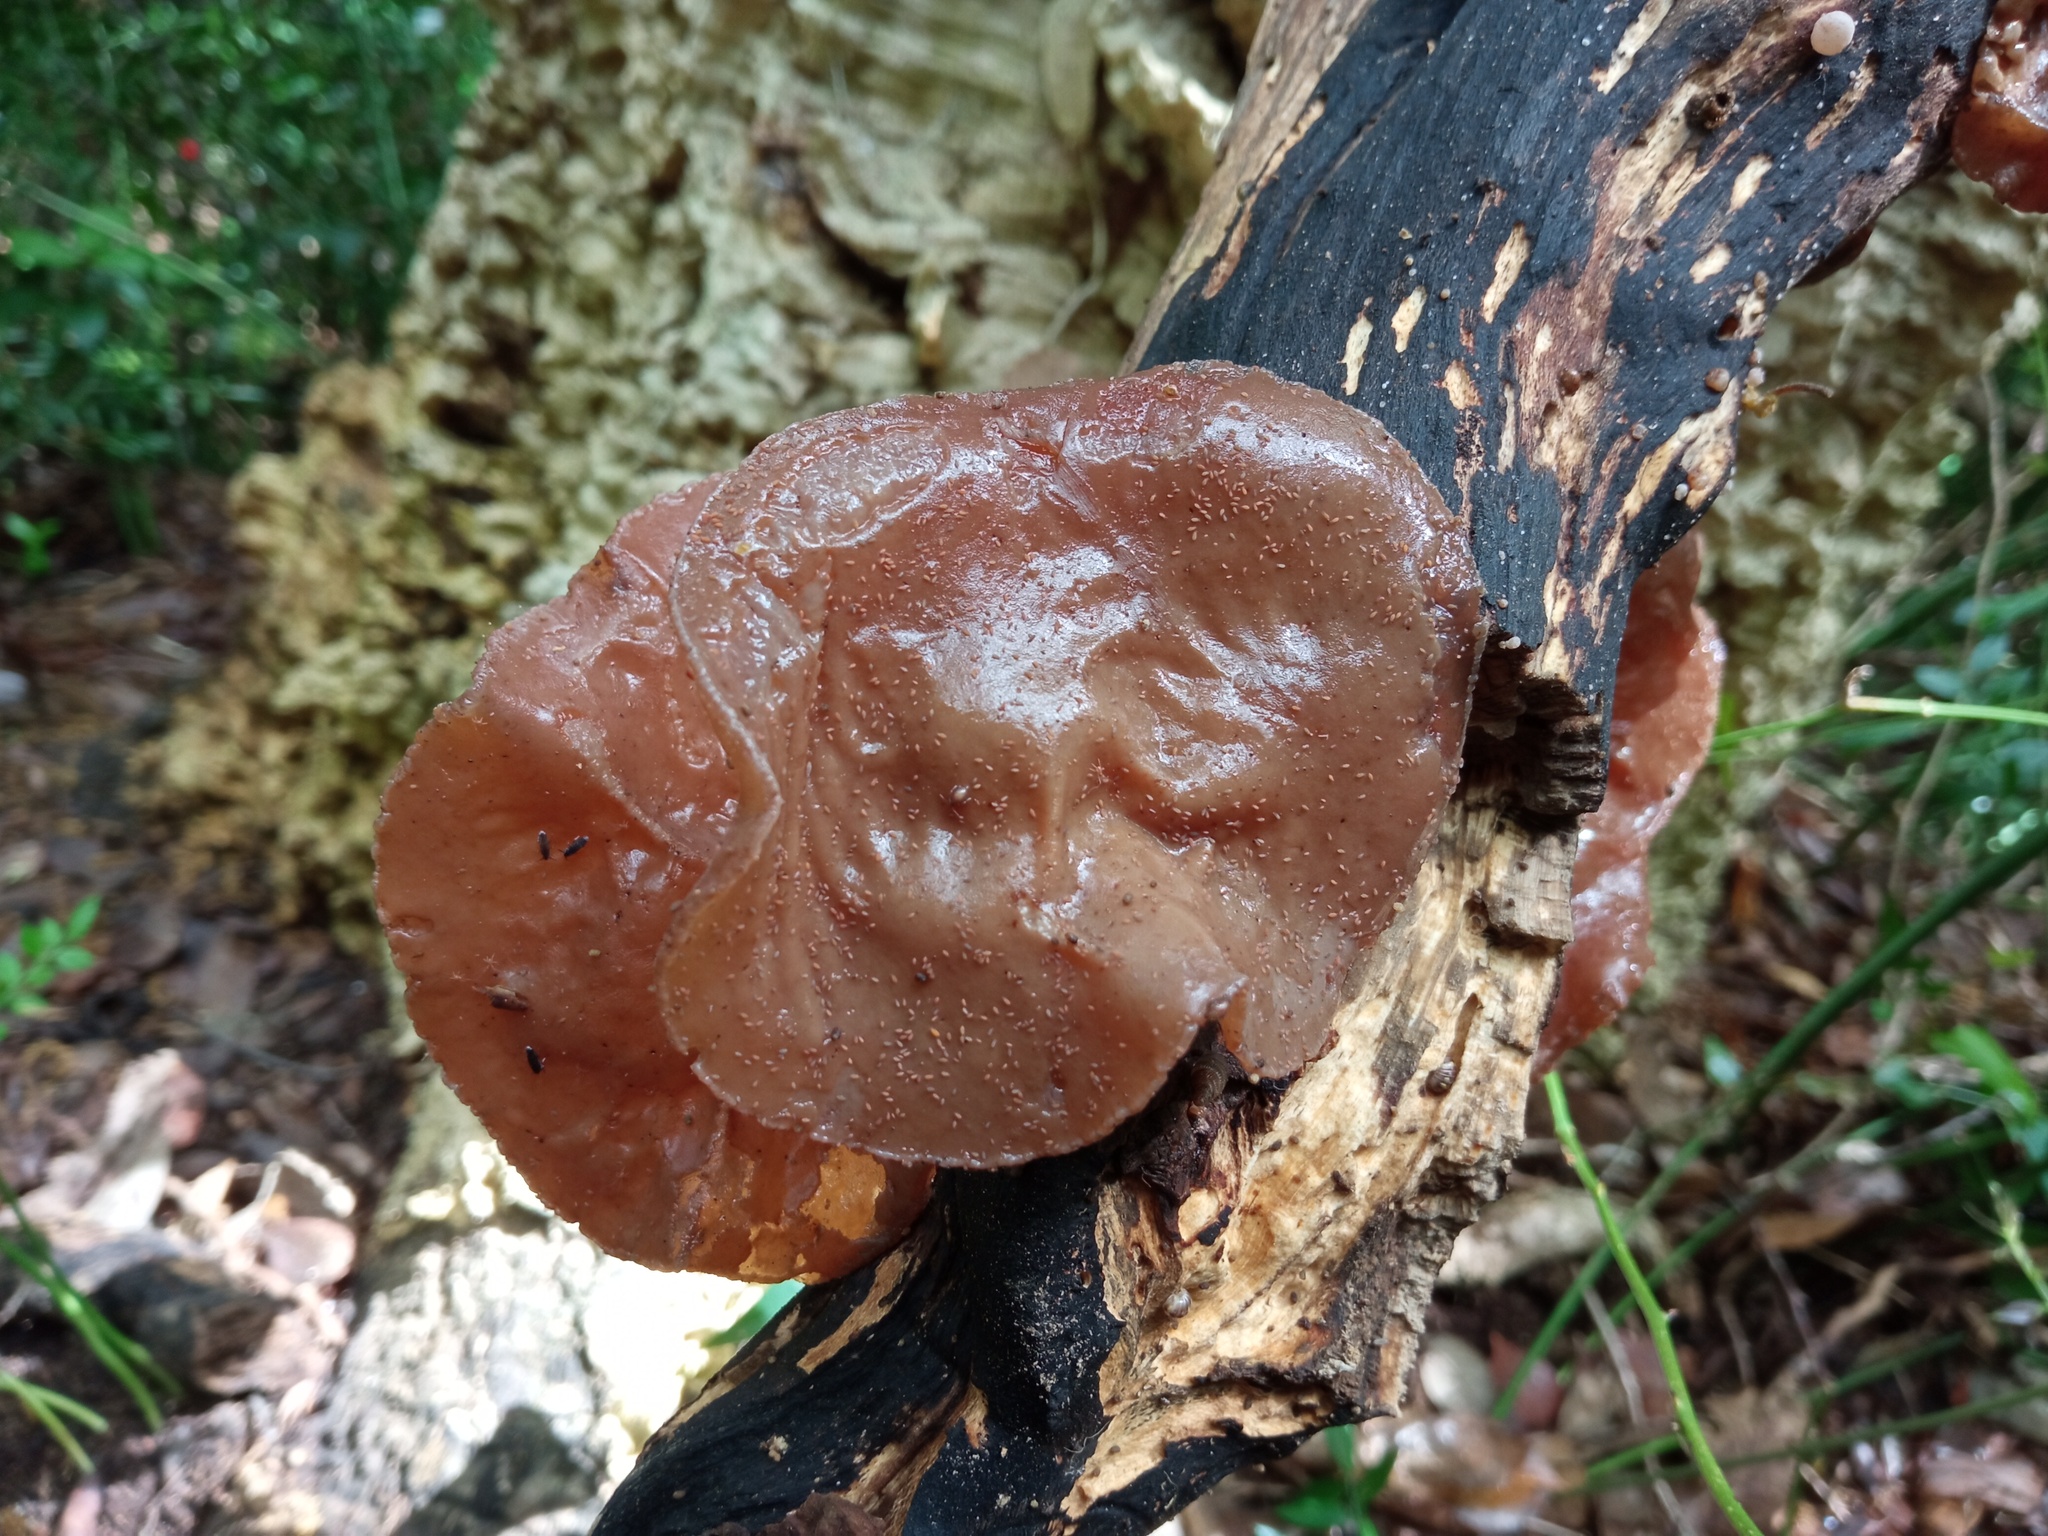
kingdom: Fungi
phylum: Basidiomycota
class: Agaricomycetes
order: Auriculariales
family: Auriculariaceae
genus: Auricularia
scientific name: Auricularia auricula-judae
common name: Jelly ear
